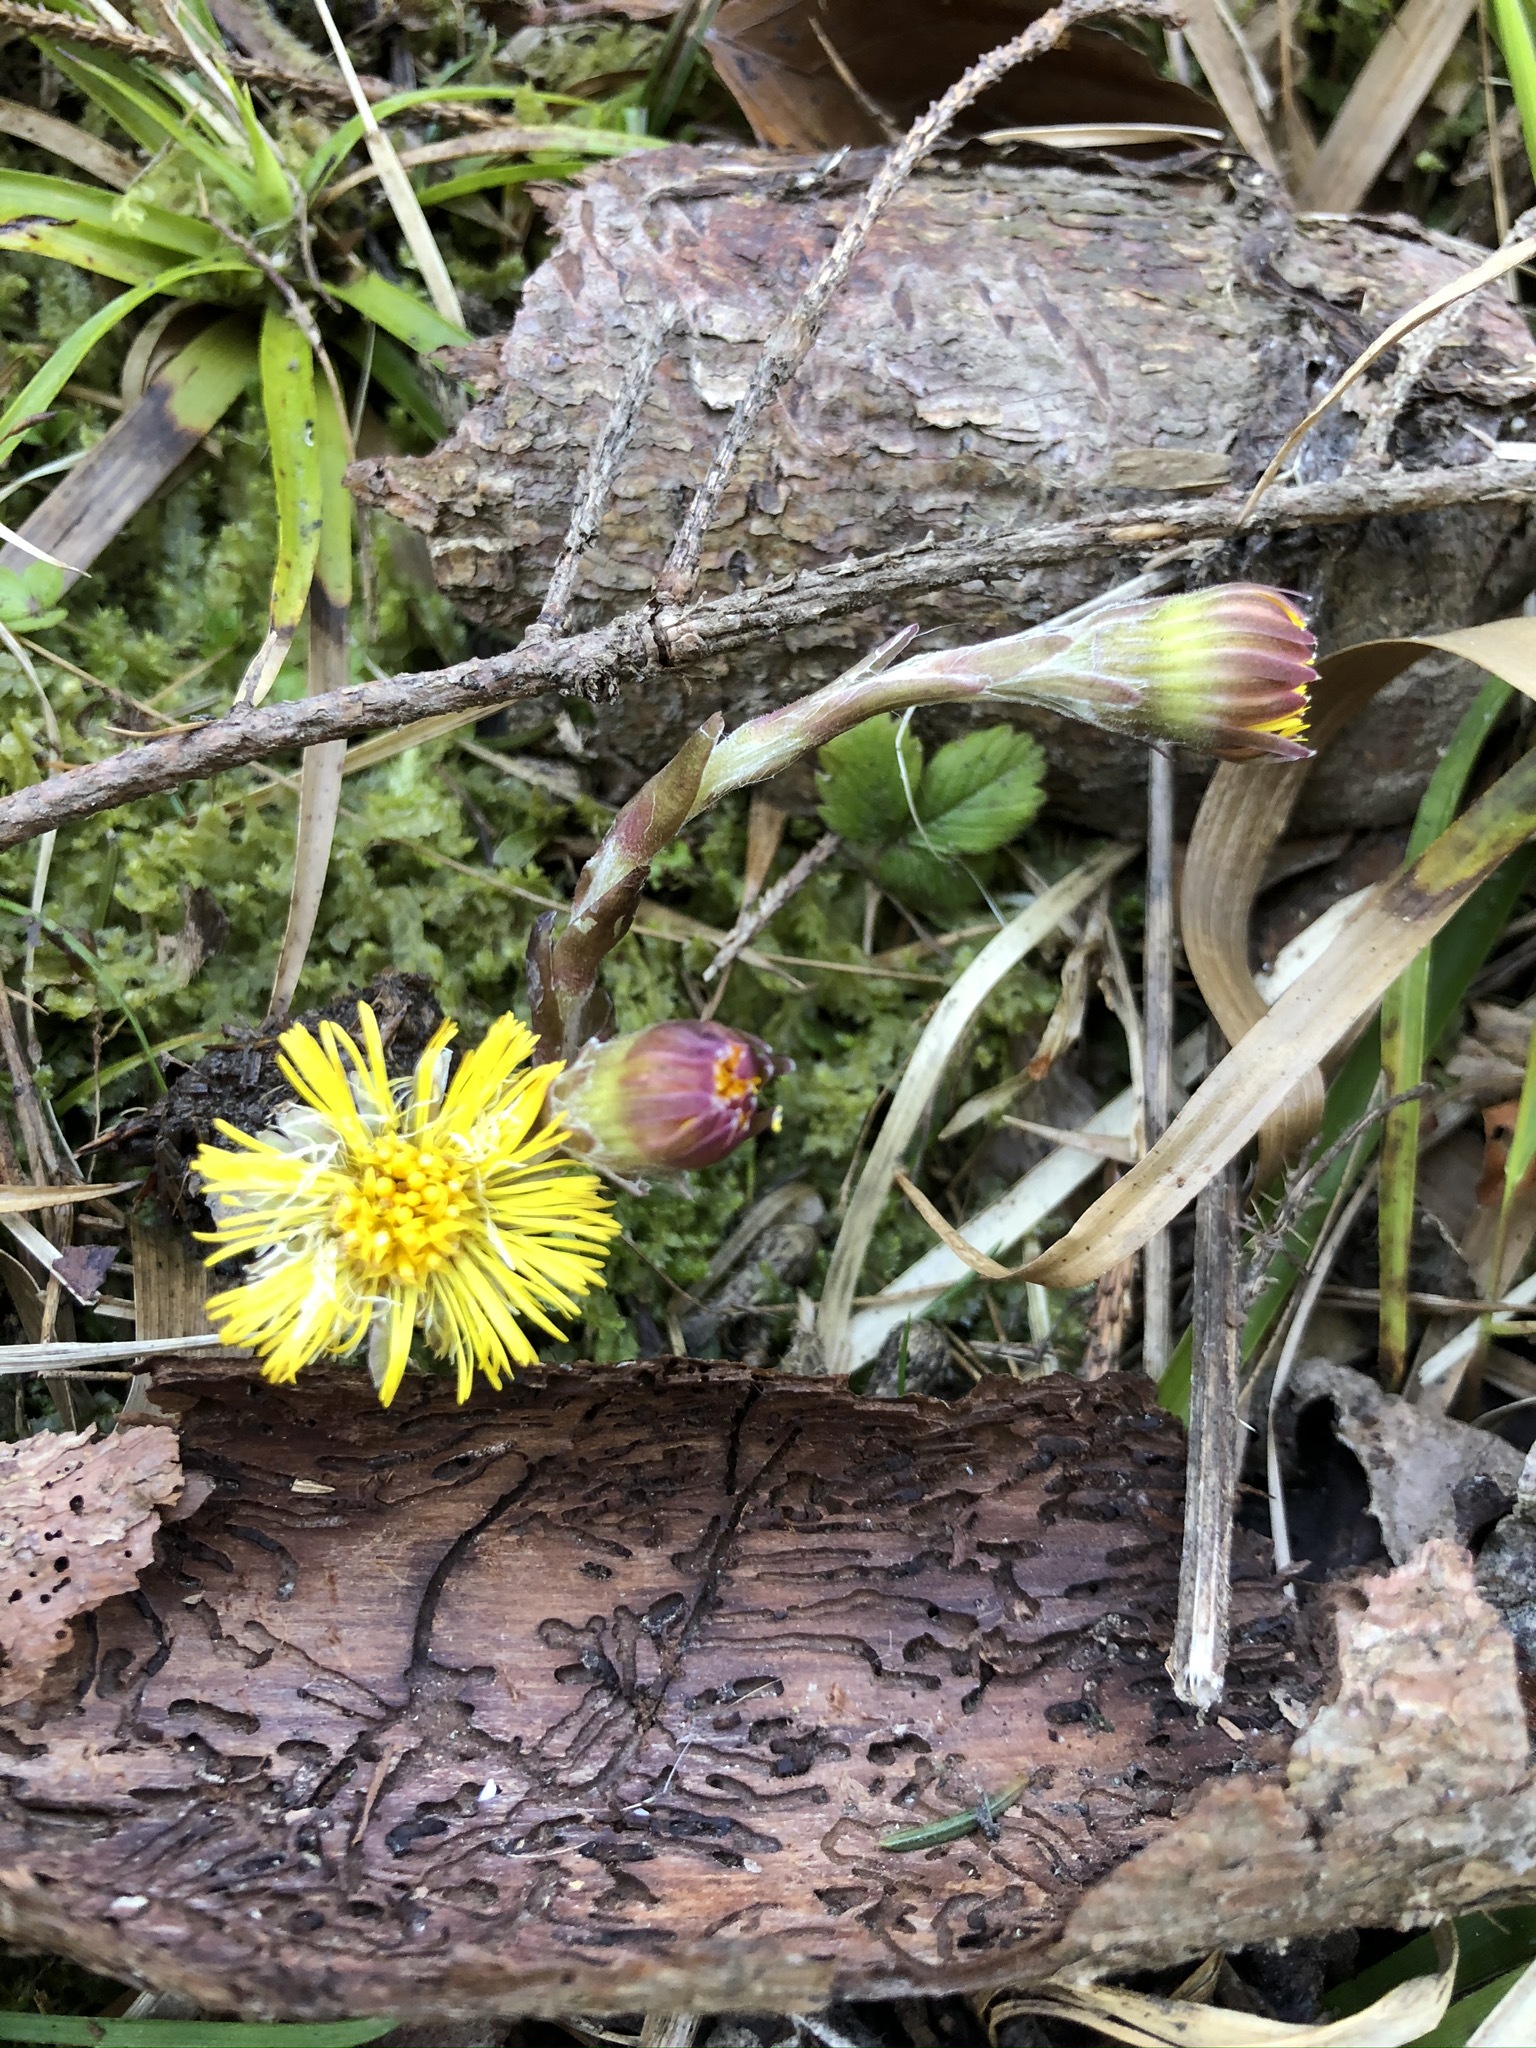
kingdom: Plantae
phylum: Tracheophyta
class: Magnoliopsida
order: Asterales
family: Asteraceae
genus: Tussilago
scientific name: Tussilago farfara
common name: Coltsfoot
